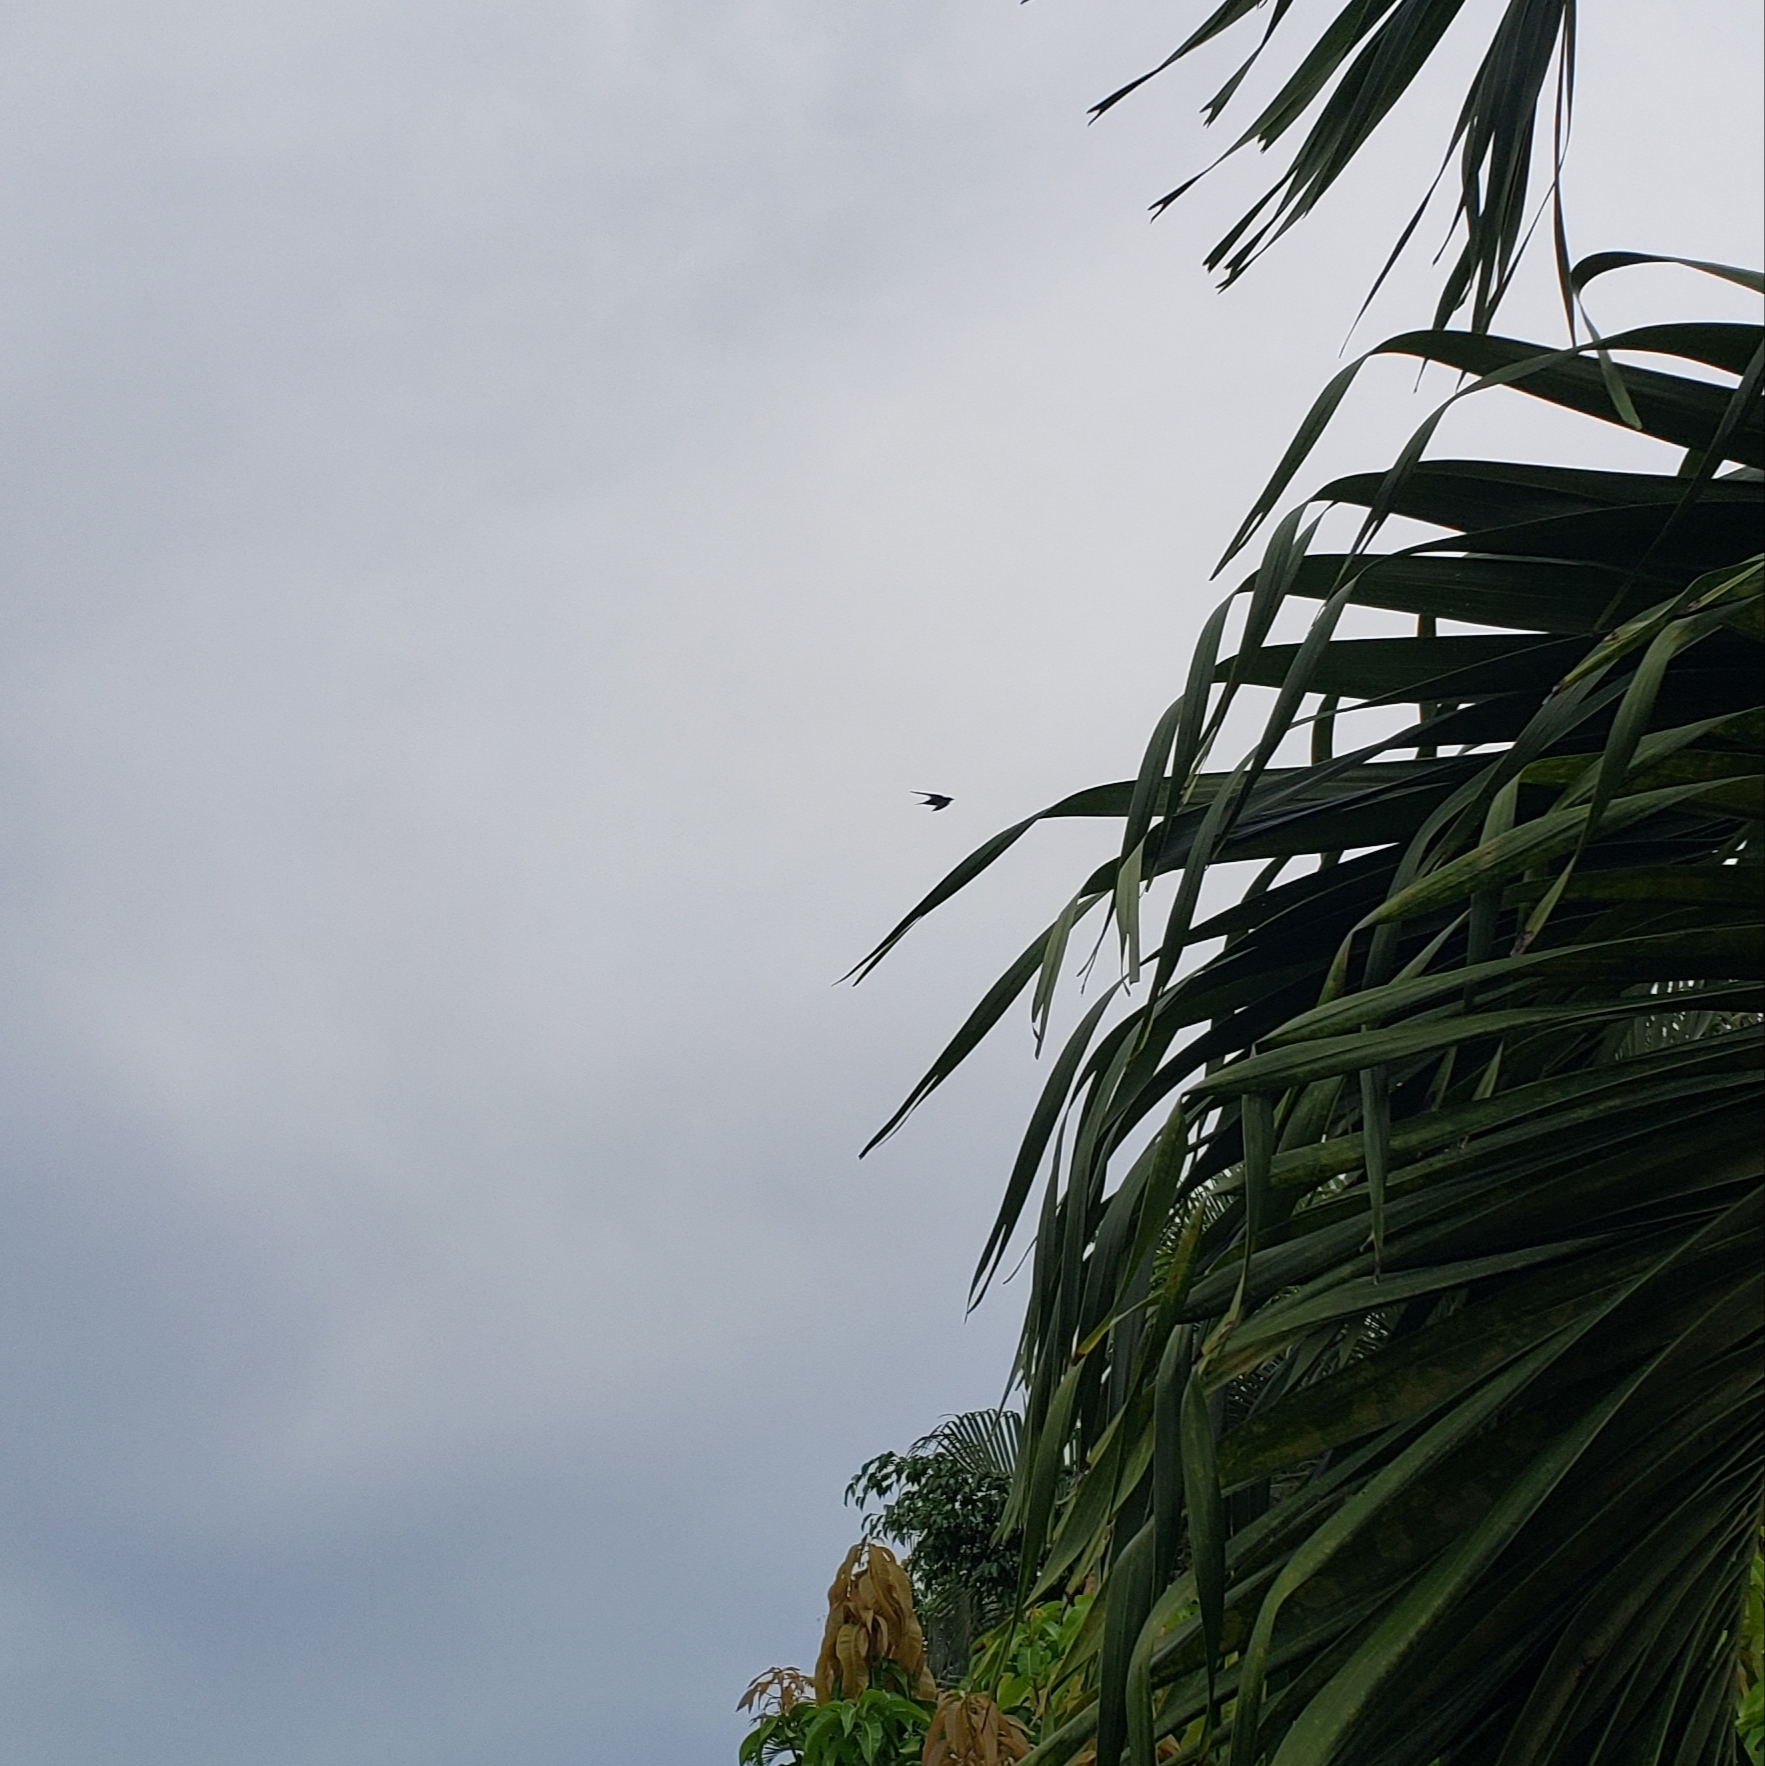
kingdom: Animalia
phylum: Chordata
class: Aves
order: Apodiformes
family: Apodidae
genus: Chaetura
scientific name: Chaetura pelagica
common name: Chimney swift
